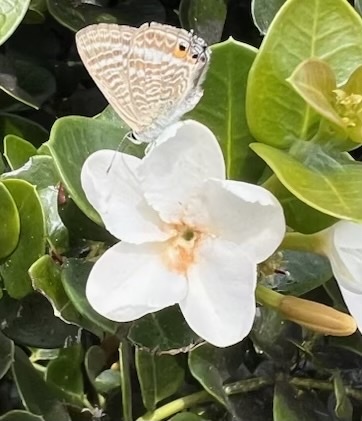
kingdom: Animalia
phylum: Arthropoda
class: Insecta
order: Lepidoptera
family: Lycaenidae
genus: Lampides
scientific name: Lampides boeticus
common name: Long-tailed blue
